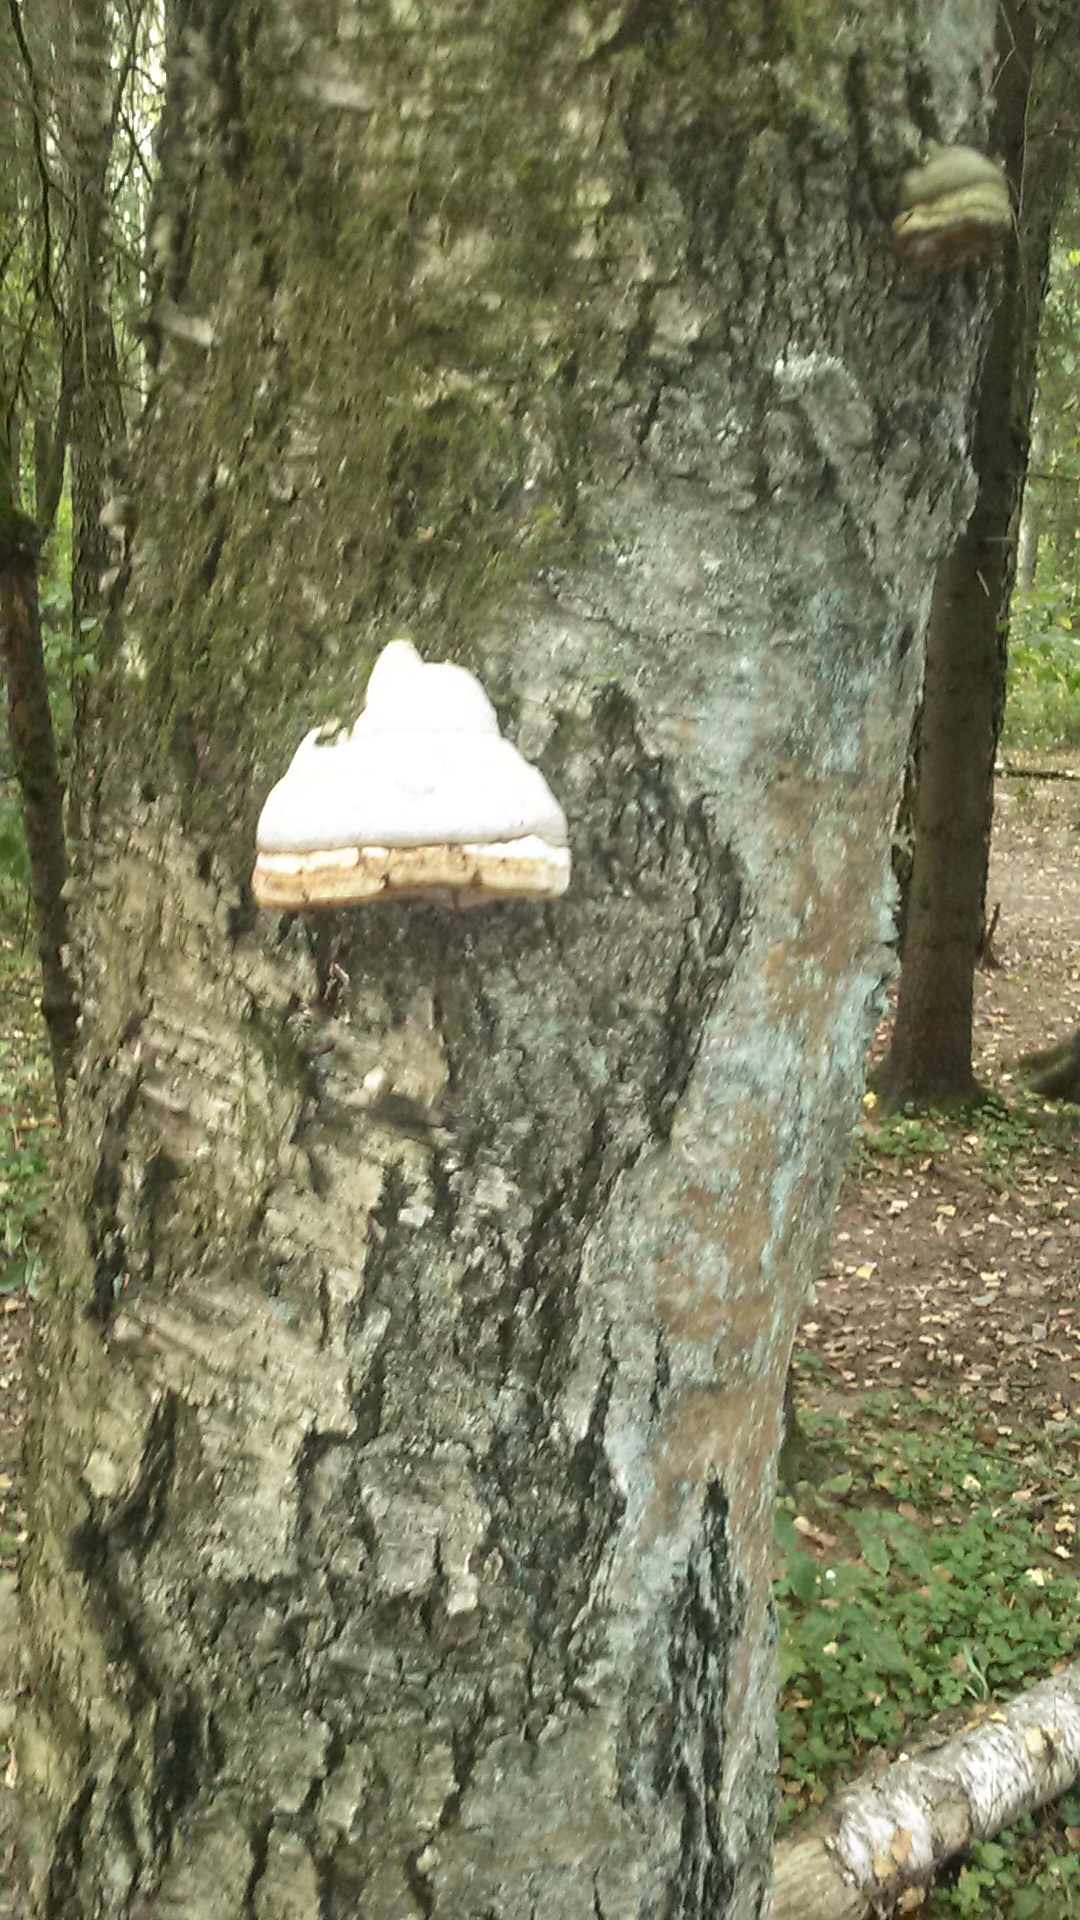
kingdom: Fungi
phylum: Basidiomycota
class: Agaricomycetes
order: Polyporales
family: Polyporaceae
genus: Fomes
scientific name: Fomes fomentarius
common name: Hoof fungus
